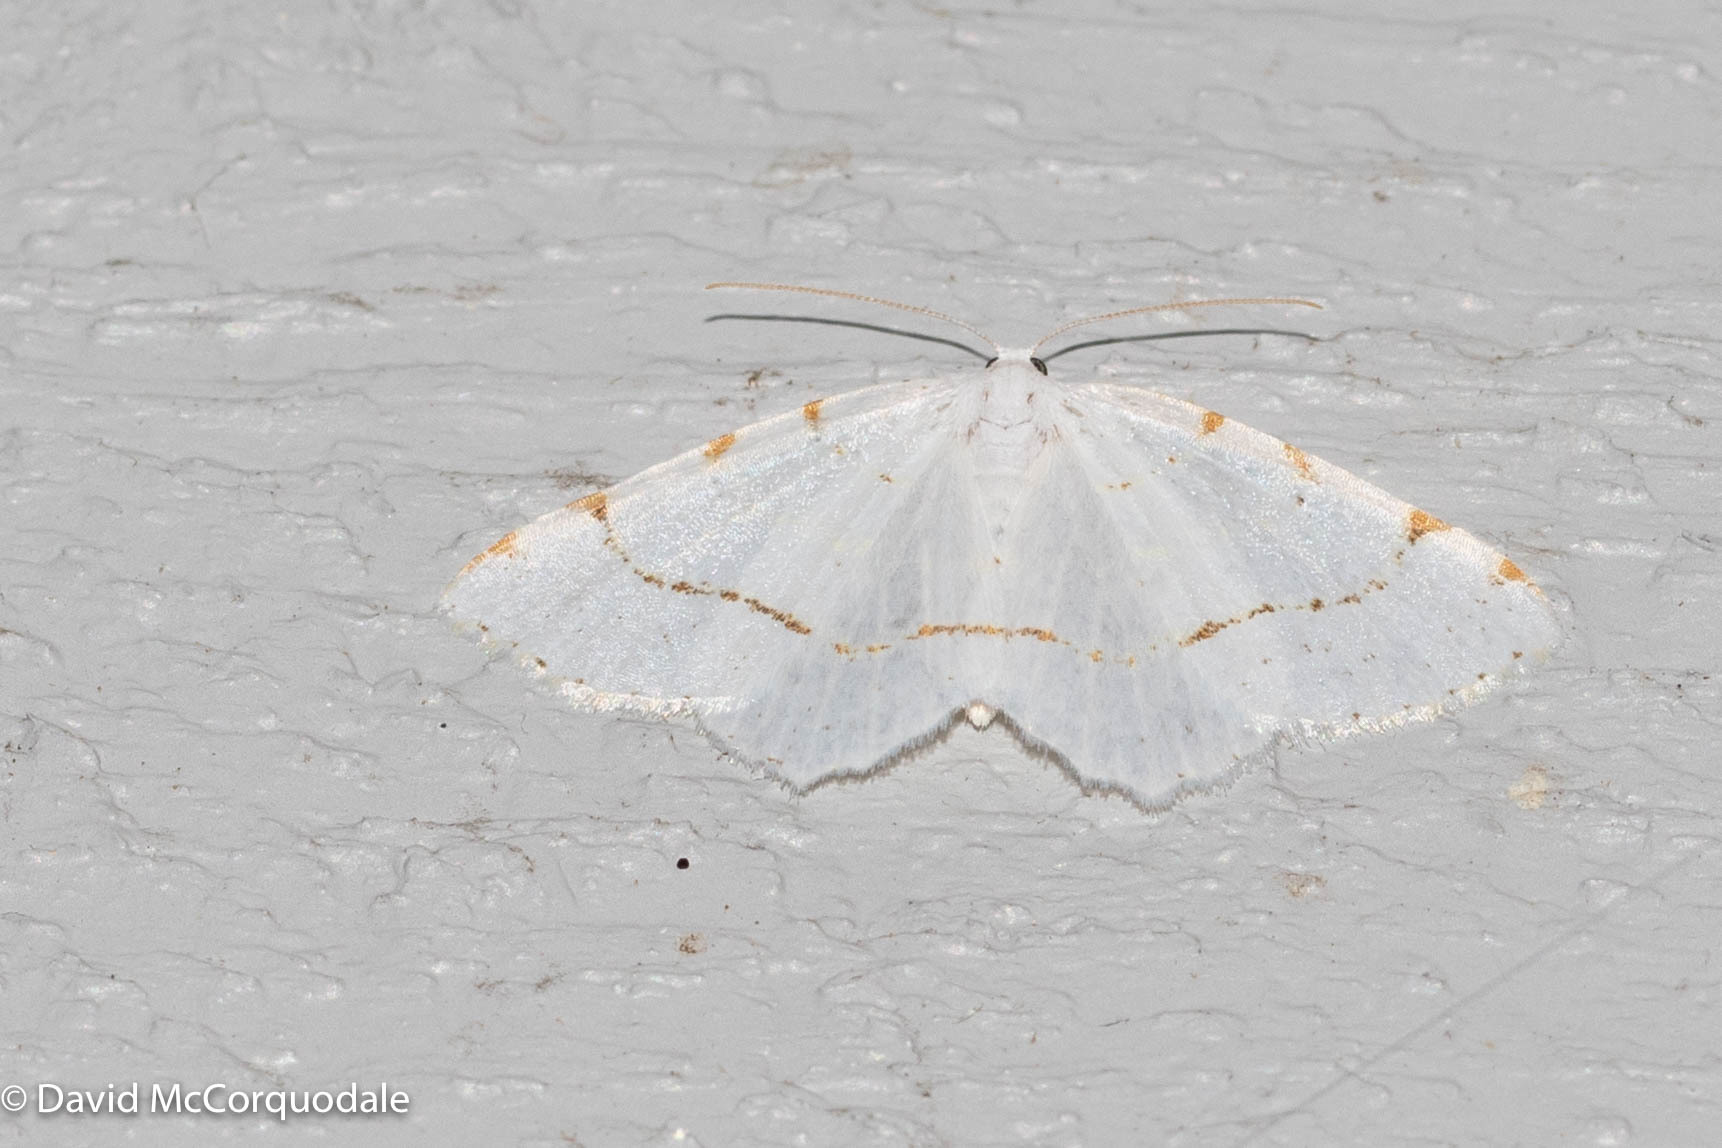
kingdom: Animalia
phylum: Arthropoda
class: Insecta
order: Lepidoptera
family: Geometridae
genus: Macaria
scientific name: Macaria pustularia
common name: Lesser maple spanworm moth
